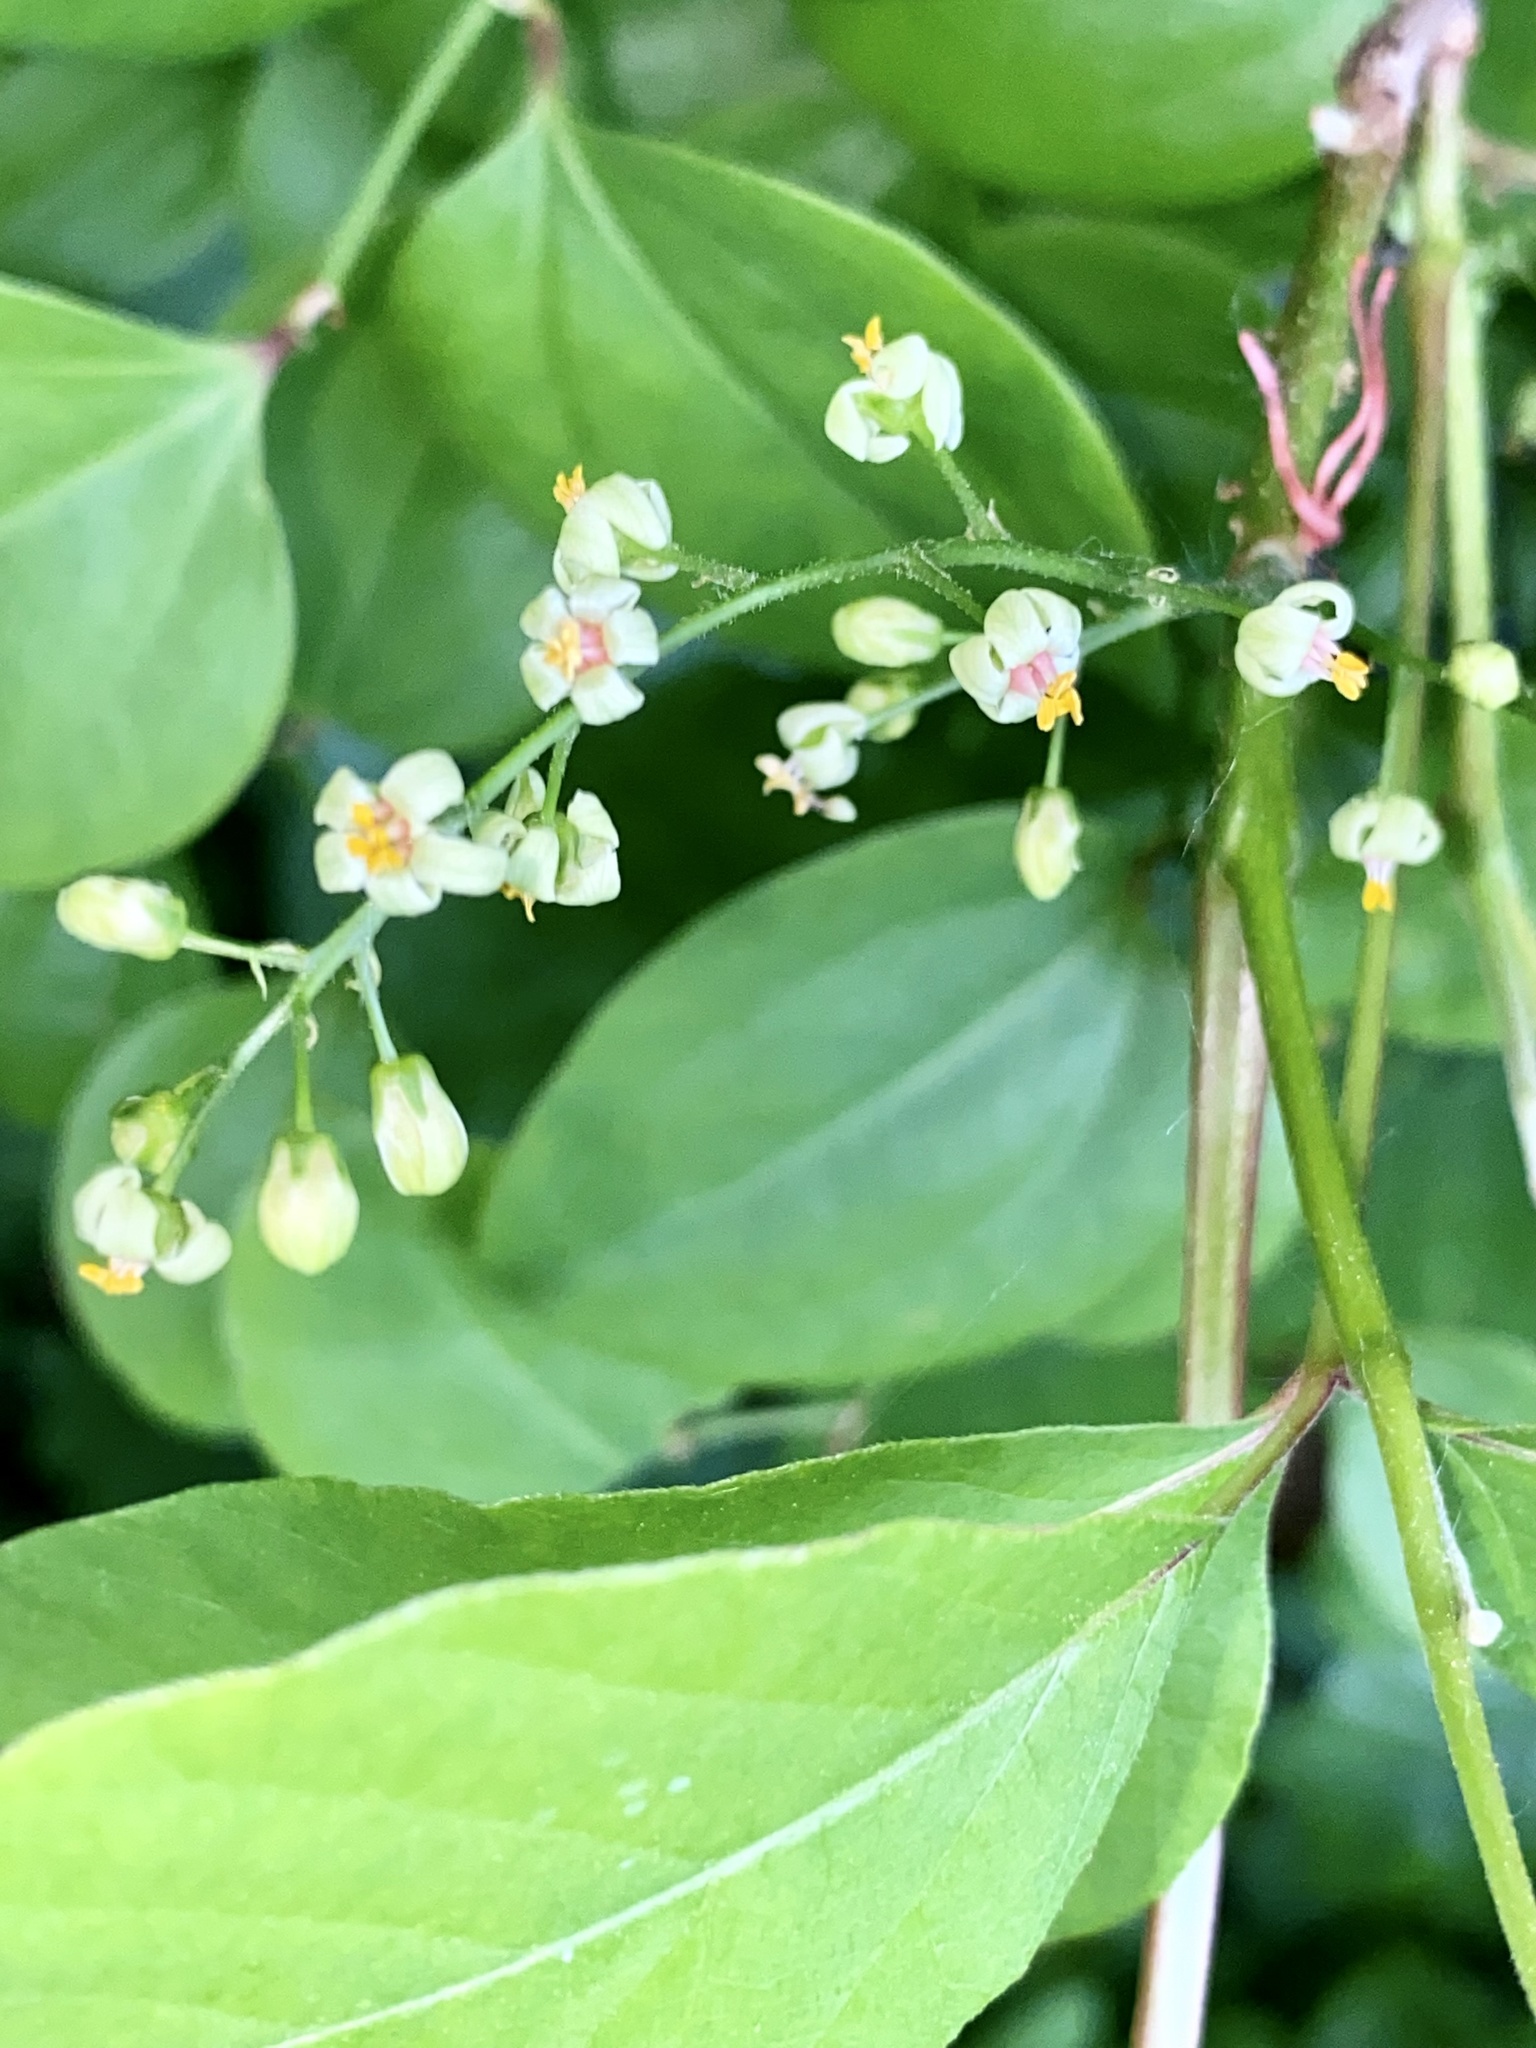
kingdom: Plantae
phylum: Tracheophyta
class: Magnoliopsida
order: Sapindales
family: Anacardiaceae
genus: Toxicodendron
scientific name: Toxicodendron radicans
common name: Poison ivy
